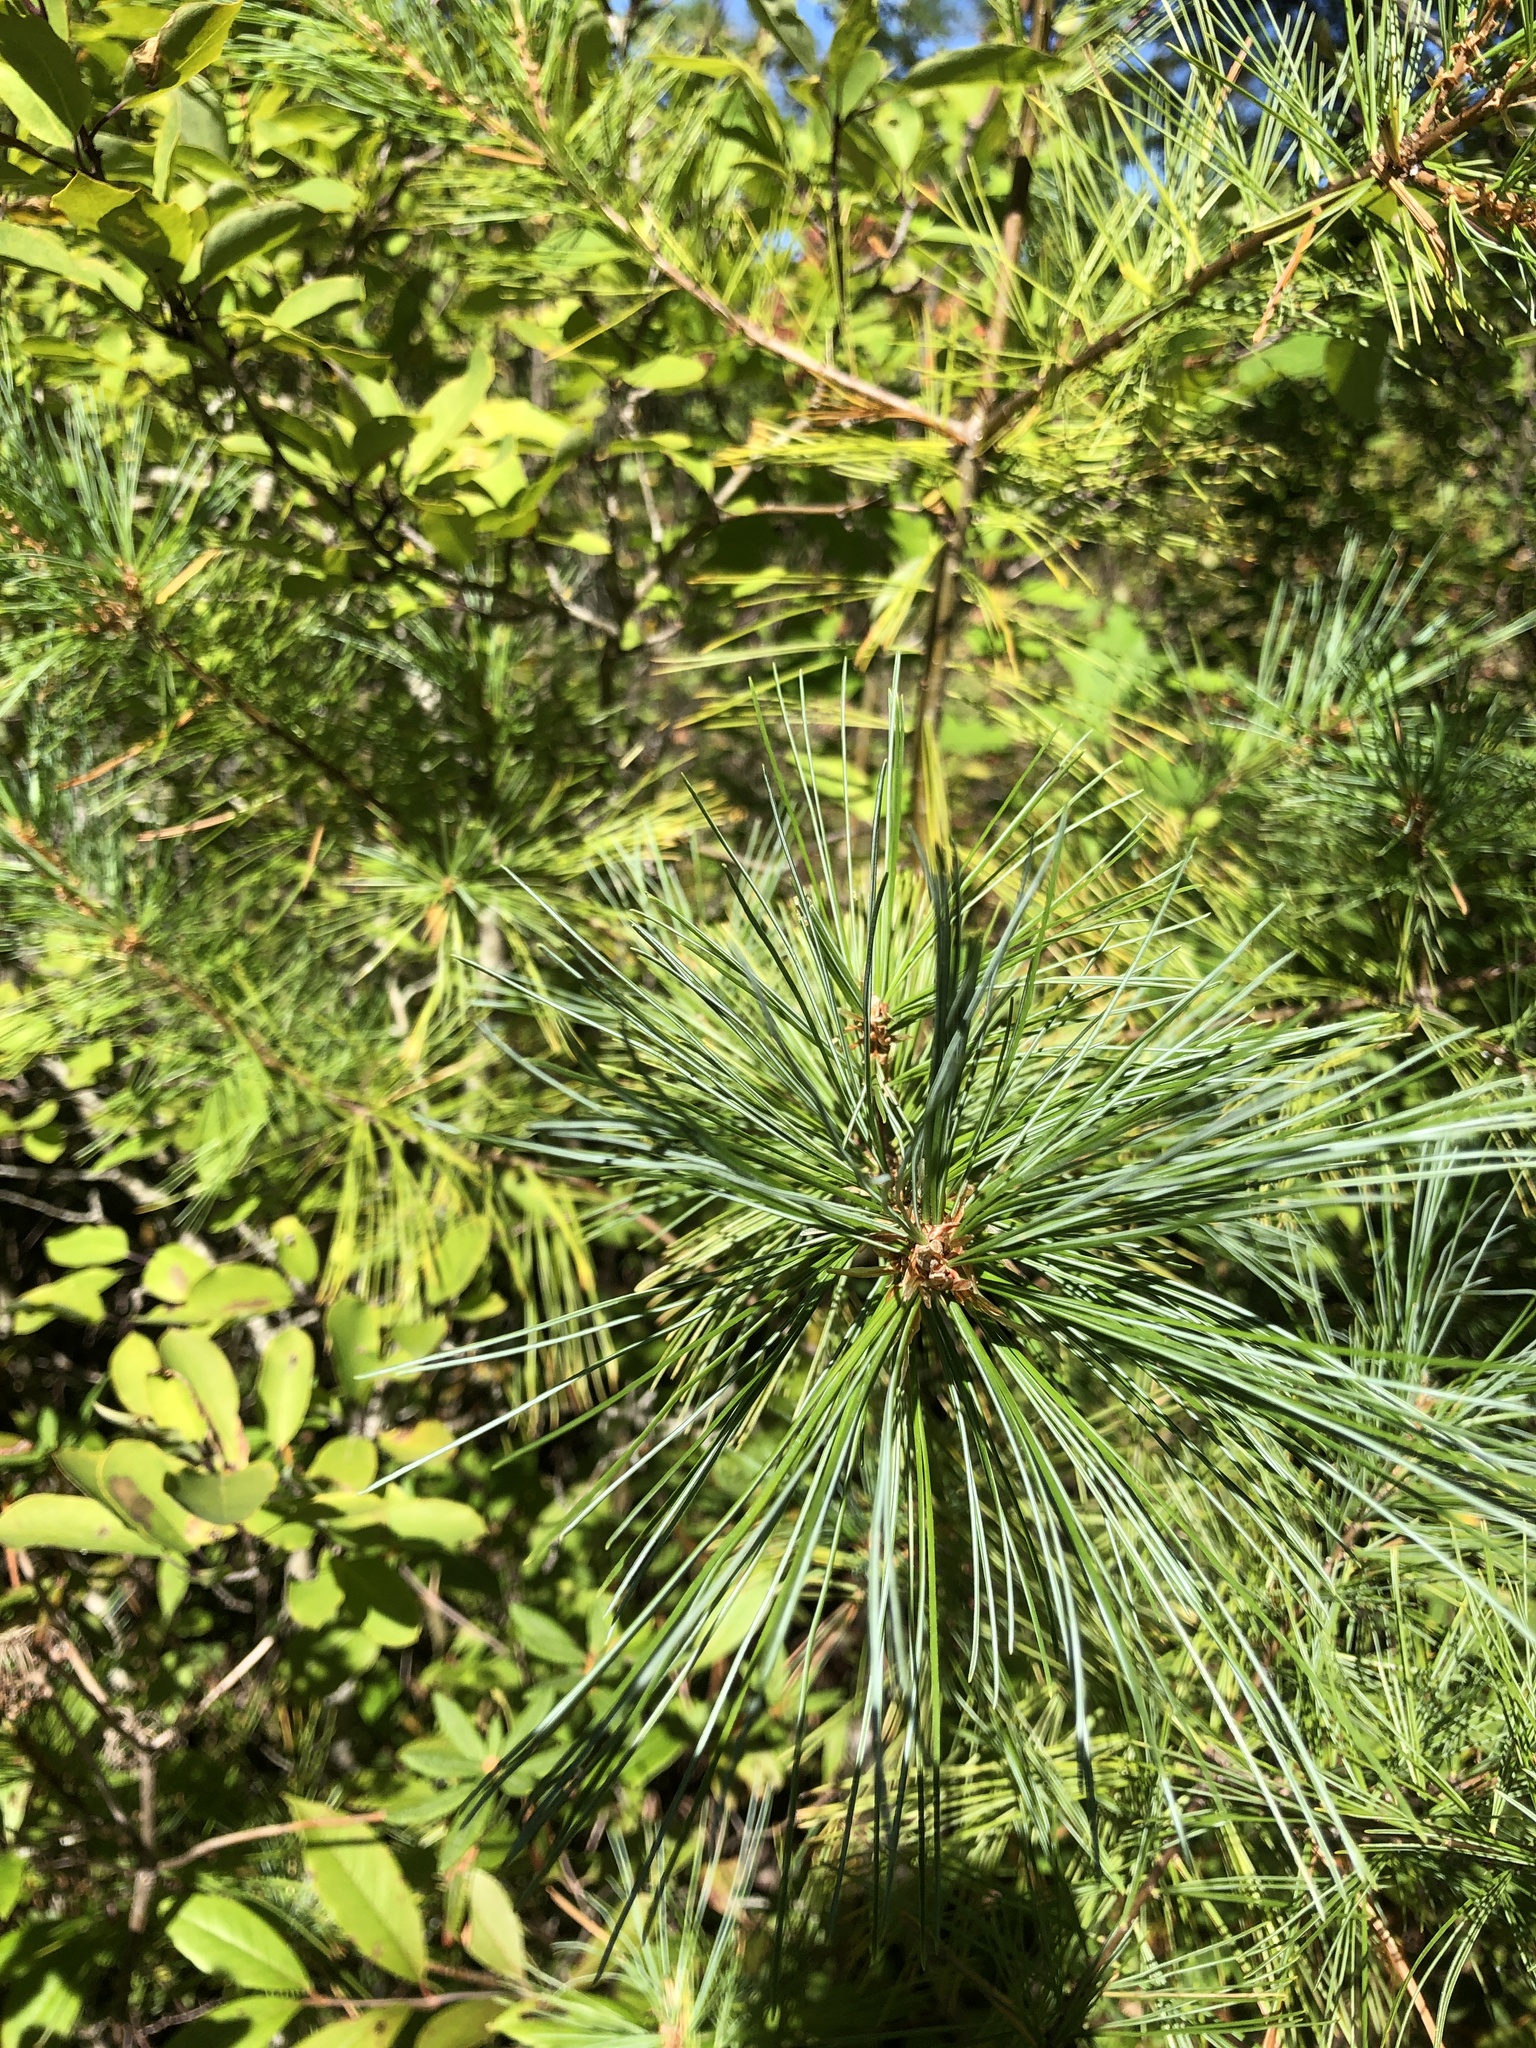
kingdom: Plantae
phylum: Tracheophyta
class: Pinopsida
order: Pinales
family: Pinaceae
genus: Pinus
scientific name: Pinus strobus
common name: Weymouth pine
